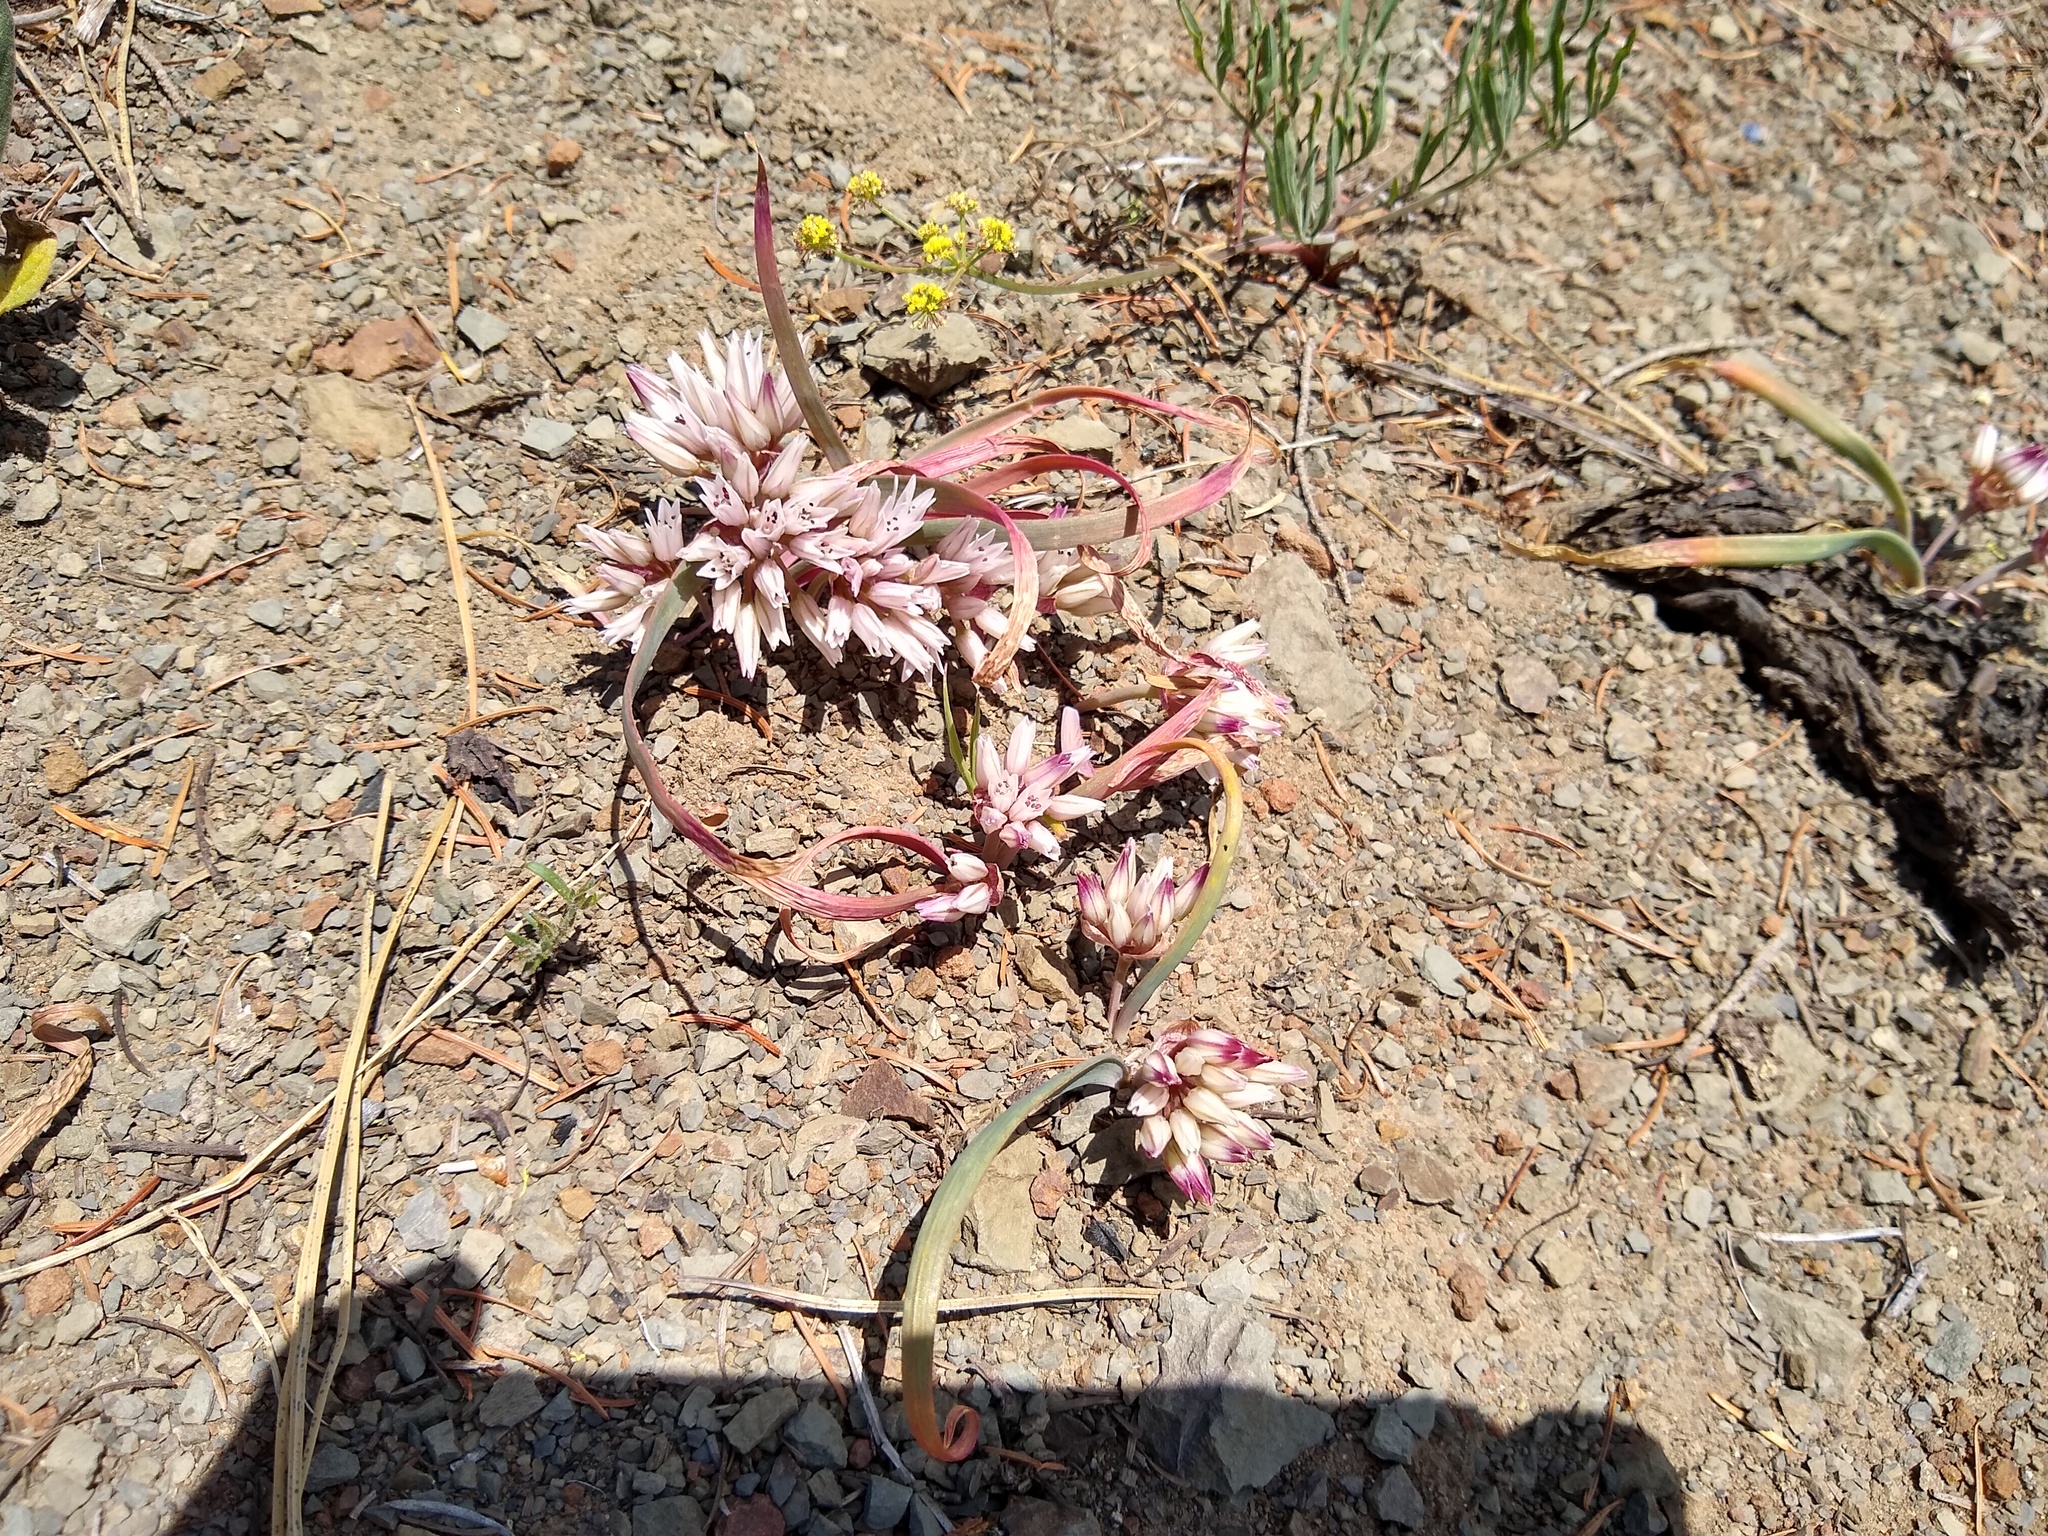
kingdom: Plantae
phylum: Tracheophyta
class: Liliopsida
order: Asparagales
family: Amaryllidaceae
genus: Allium
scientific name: Allium crenulatum
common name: Olympic onion
